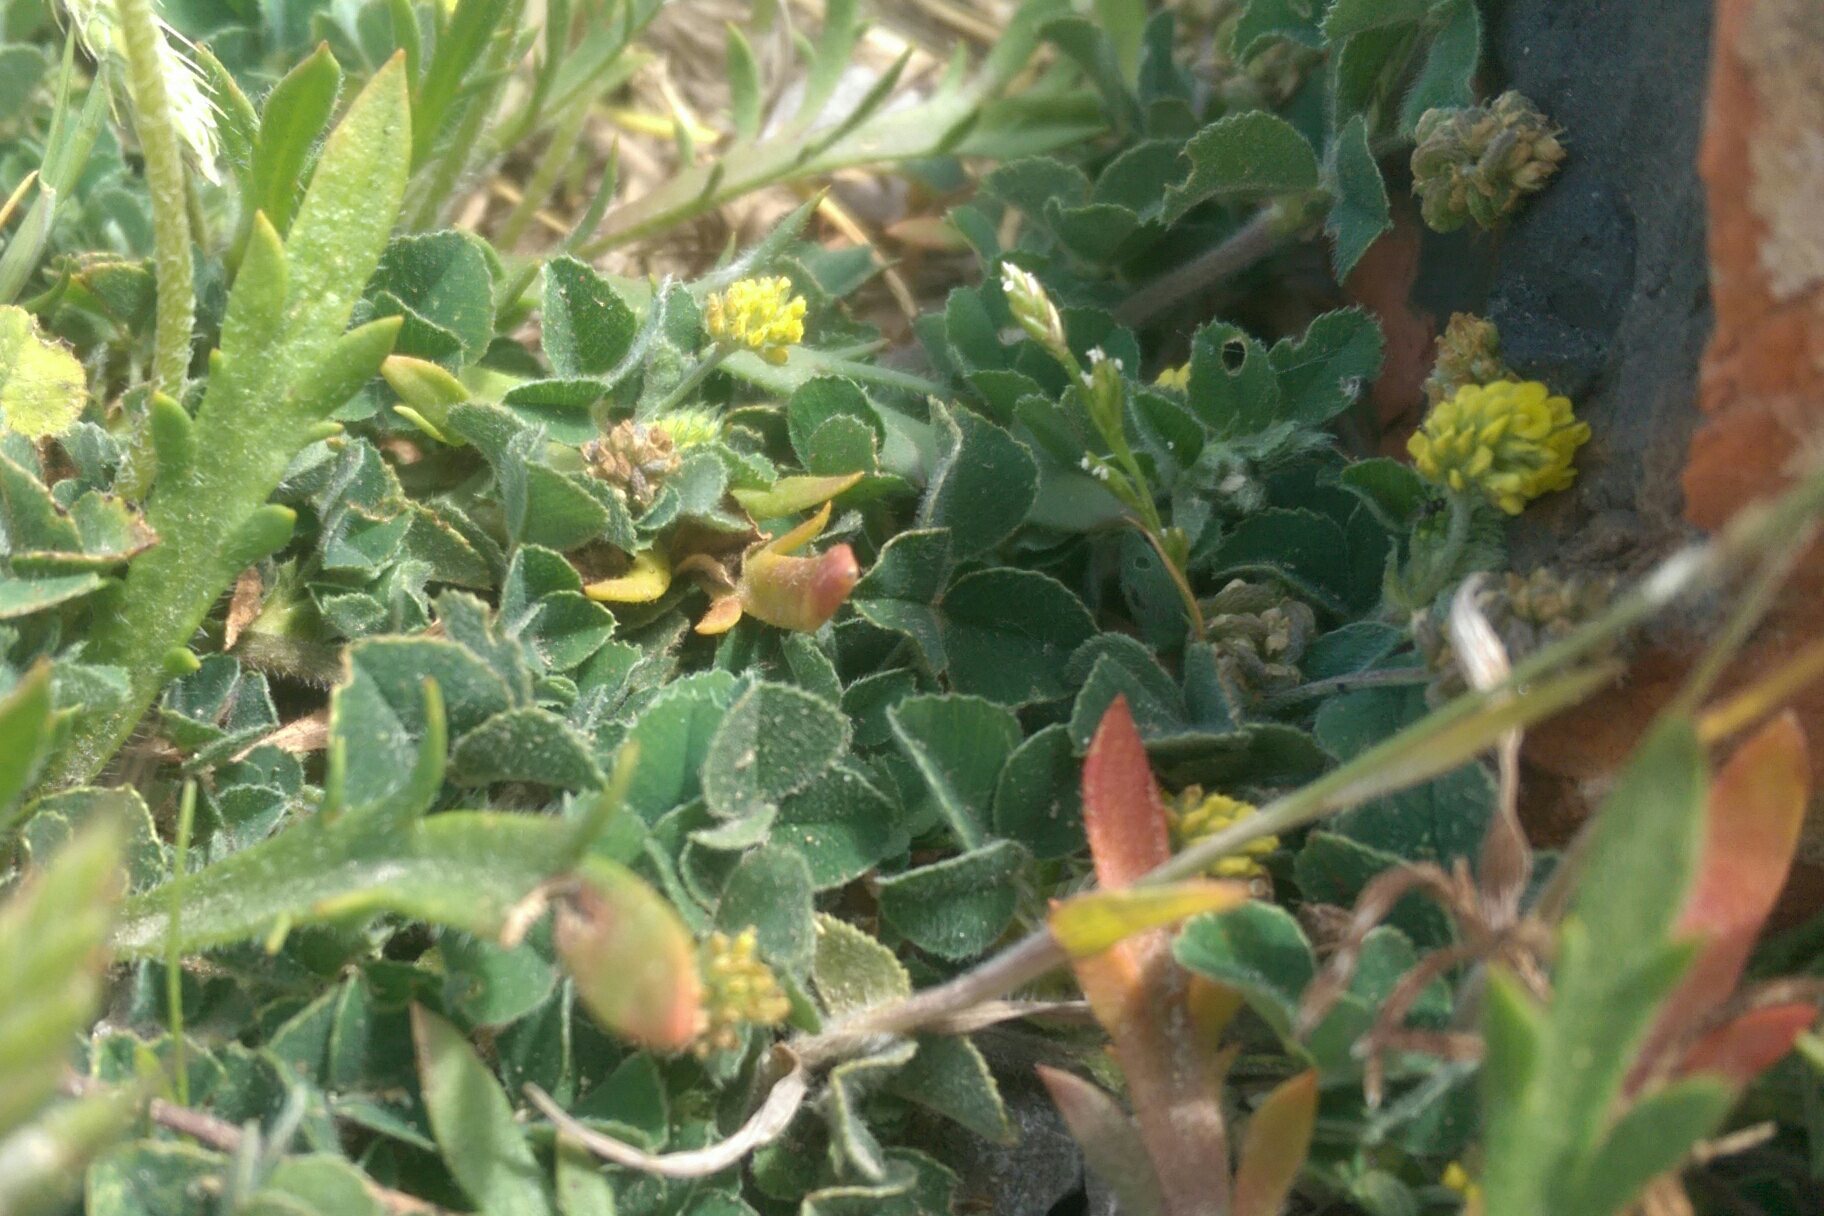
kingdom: Plantae
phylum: Tracheophyta
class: Magnoliopsida
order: Fabales
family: Fabaceae
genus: Medicago
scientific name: Medicago lupulina
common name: Black medick
